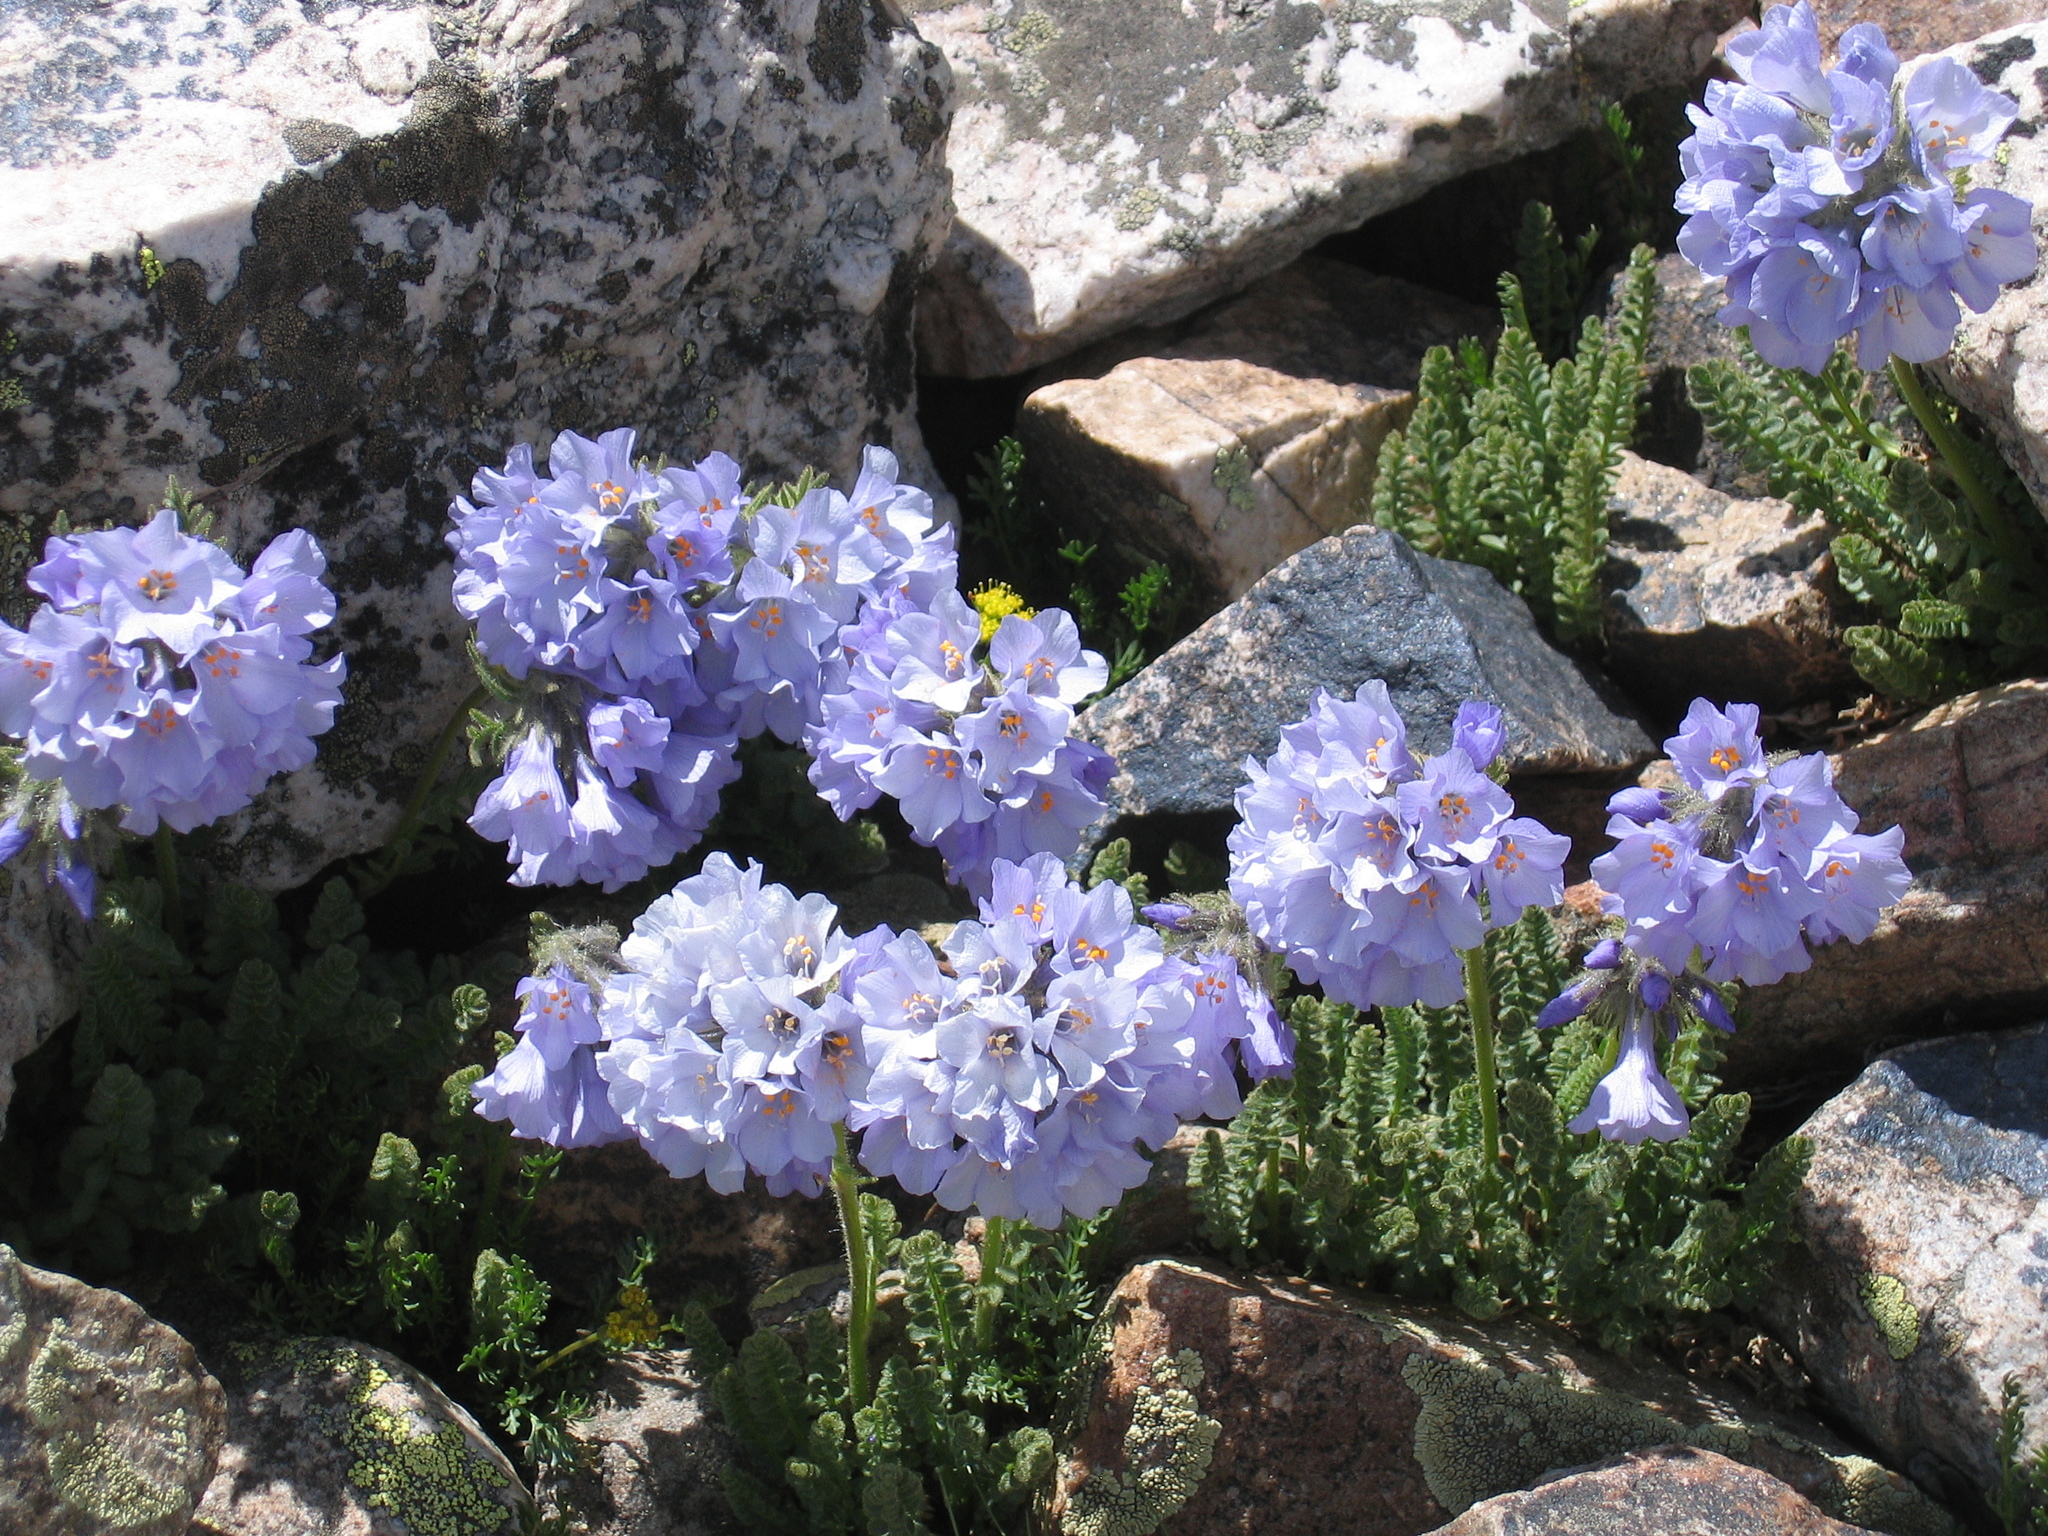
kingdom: Plantae
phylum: Tracheophyta
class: Magnoliopsida
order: Ericales
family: Polemoniaceae
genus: Polemonium
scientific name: Polemonium viscosum
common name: Skunk jacob's-ladder
